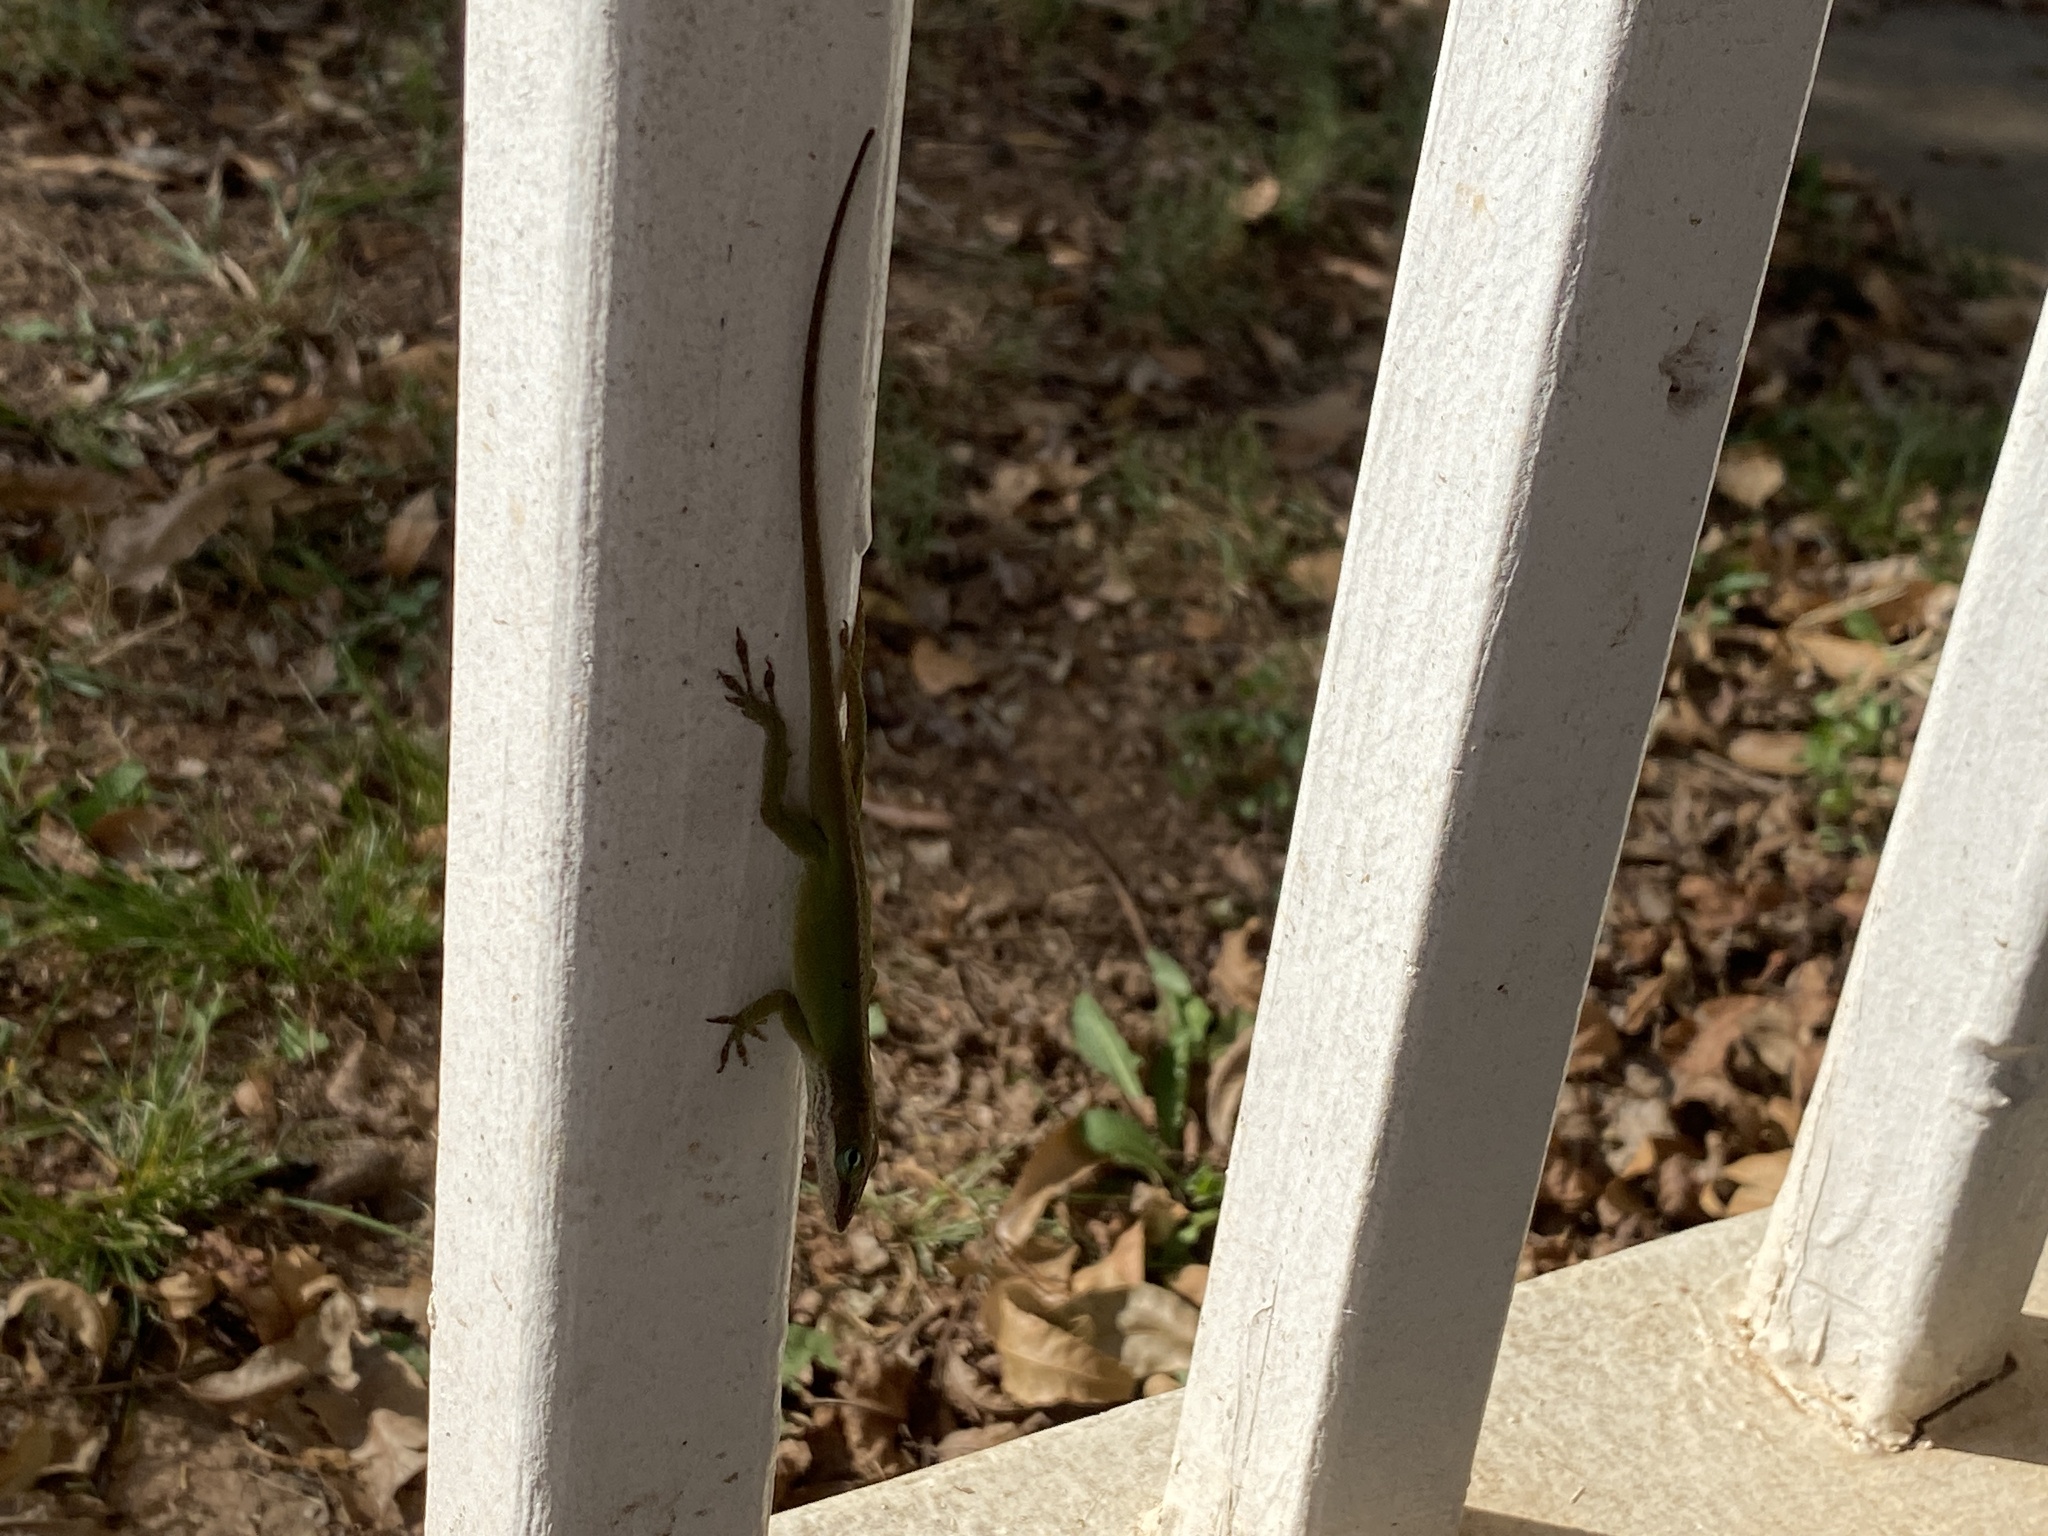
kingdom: Animalia
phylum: Chordata
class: Squamata
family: Dactyloidae
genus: Anolis
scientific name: Anolis carolinensis
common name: Green anole
